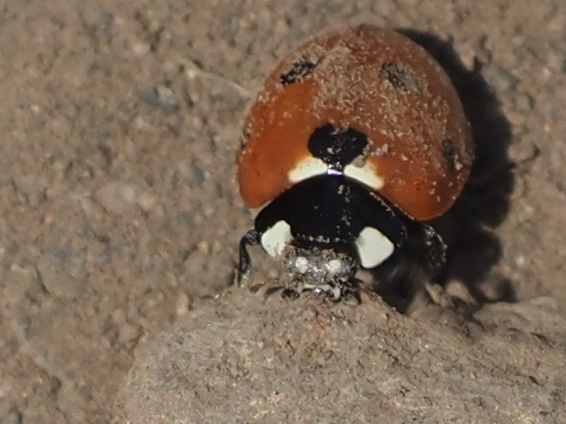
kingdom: Animalia
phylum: Arthropoda
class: Insecta
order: Coleoptera
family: Coccinellidae
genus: Coccinella
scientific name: Coccinella septempunctata
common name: Sevenspotted lady beetle
